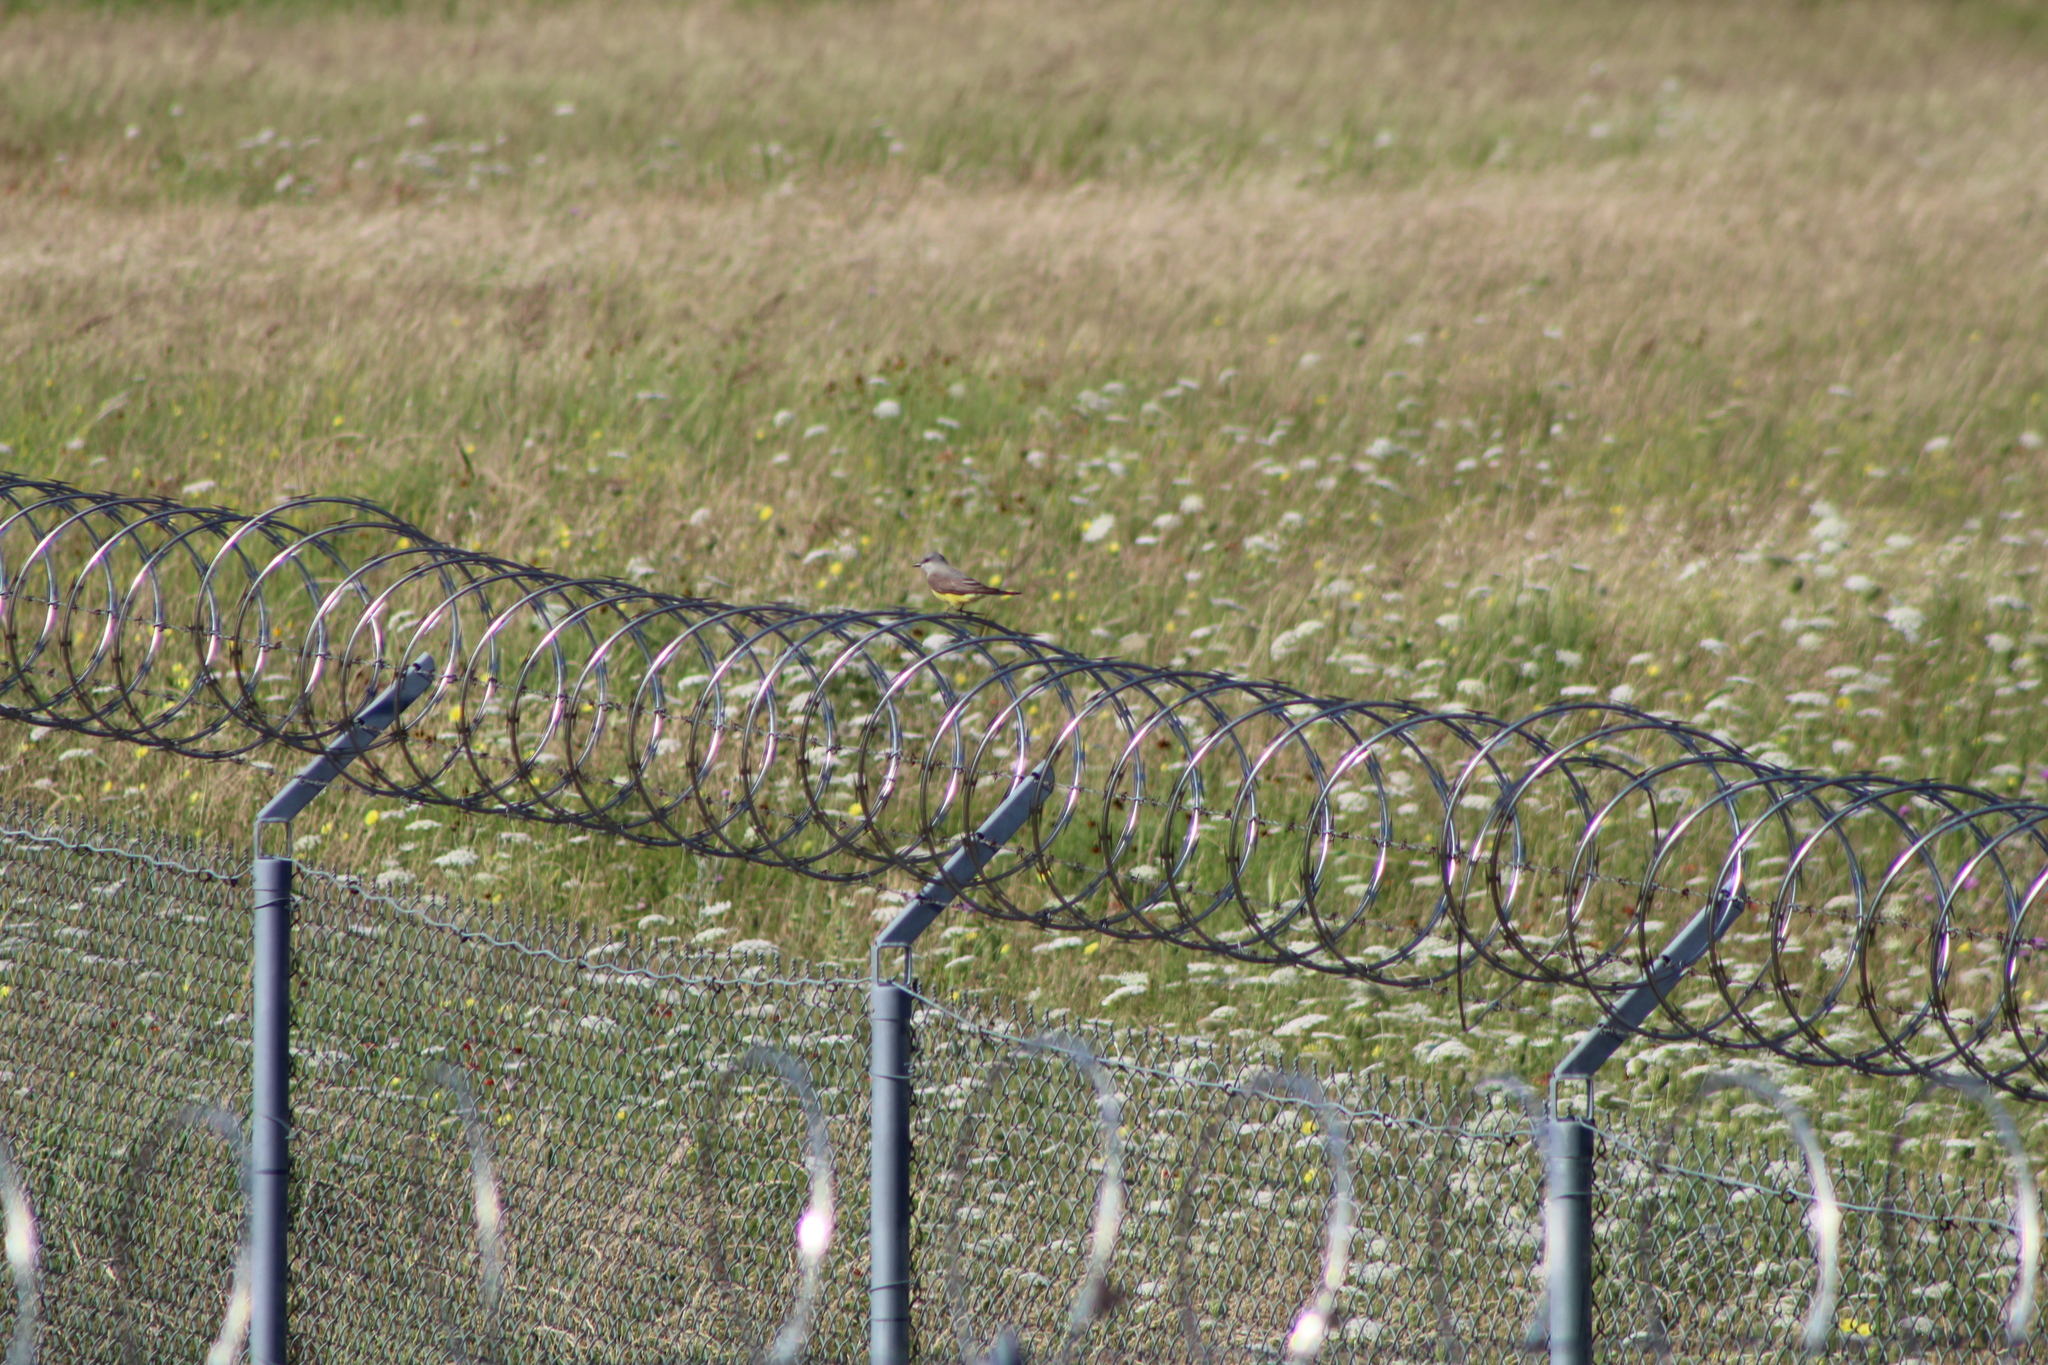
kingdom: Animalia
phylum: Chordata
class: Aves
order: Passeriformes
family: Tyrannidae
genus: Tyrannus
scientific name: Tyrannus verticalis
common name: Western kingbird
